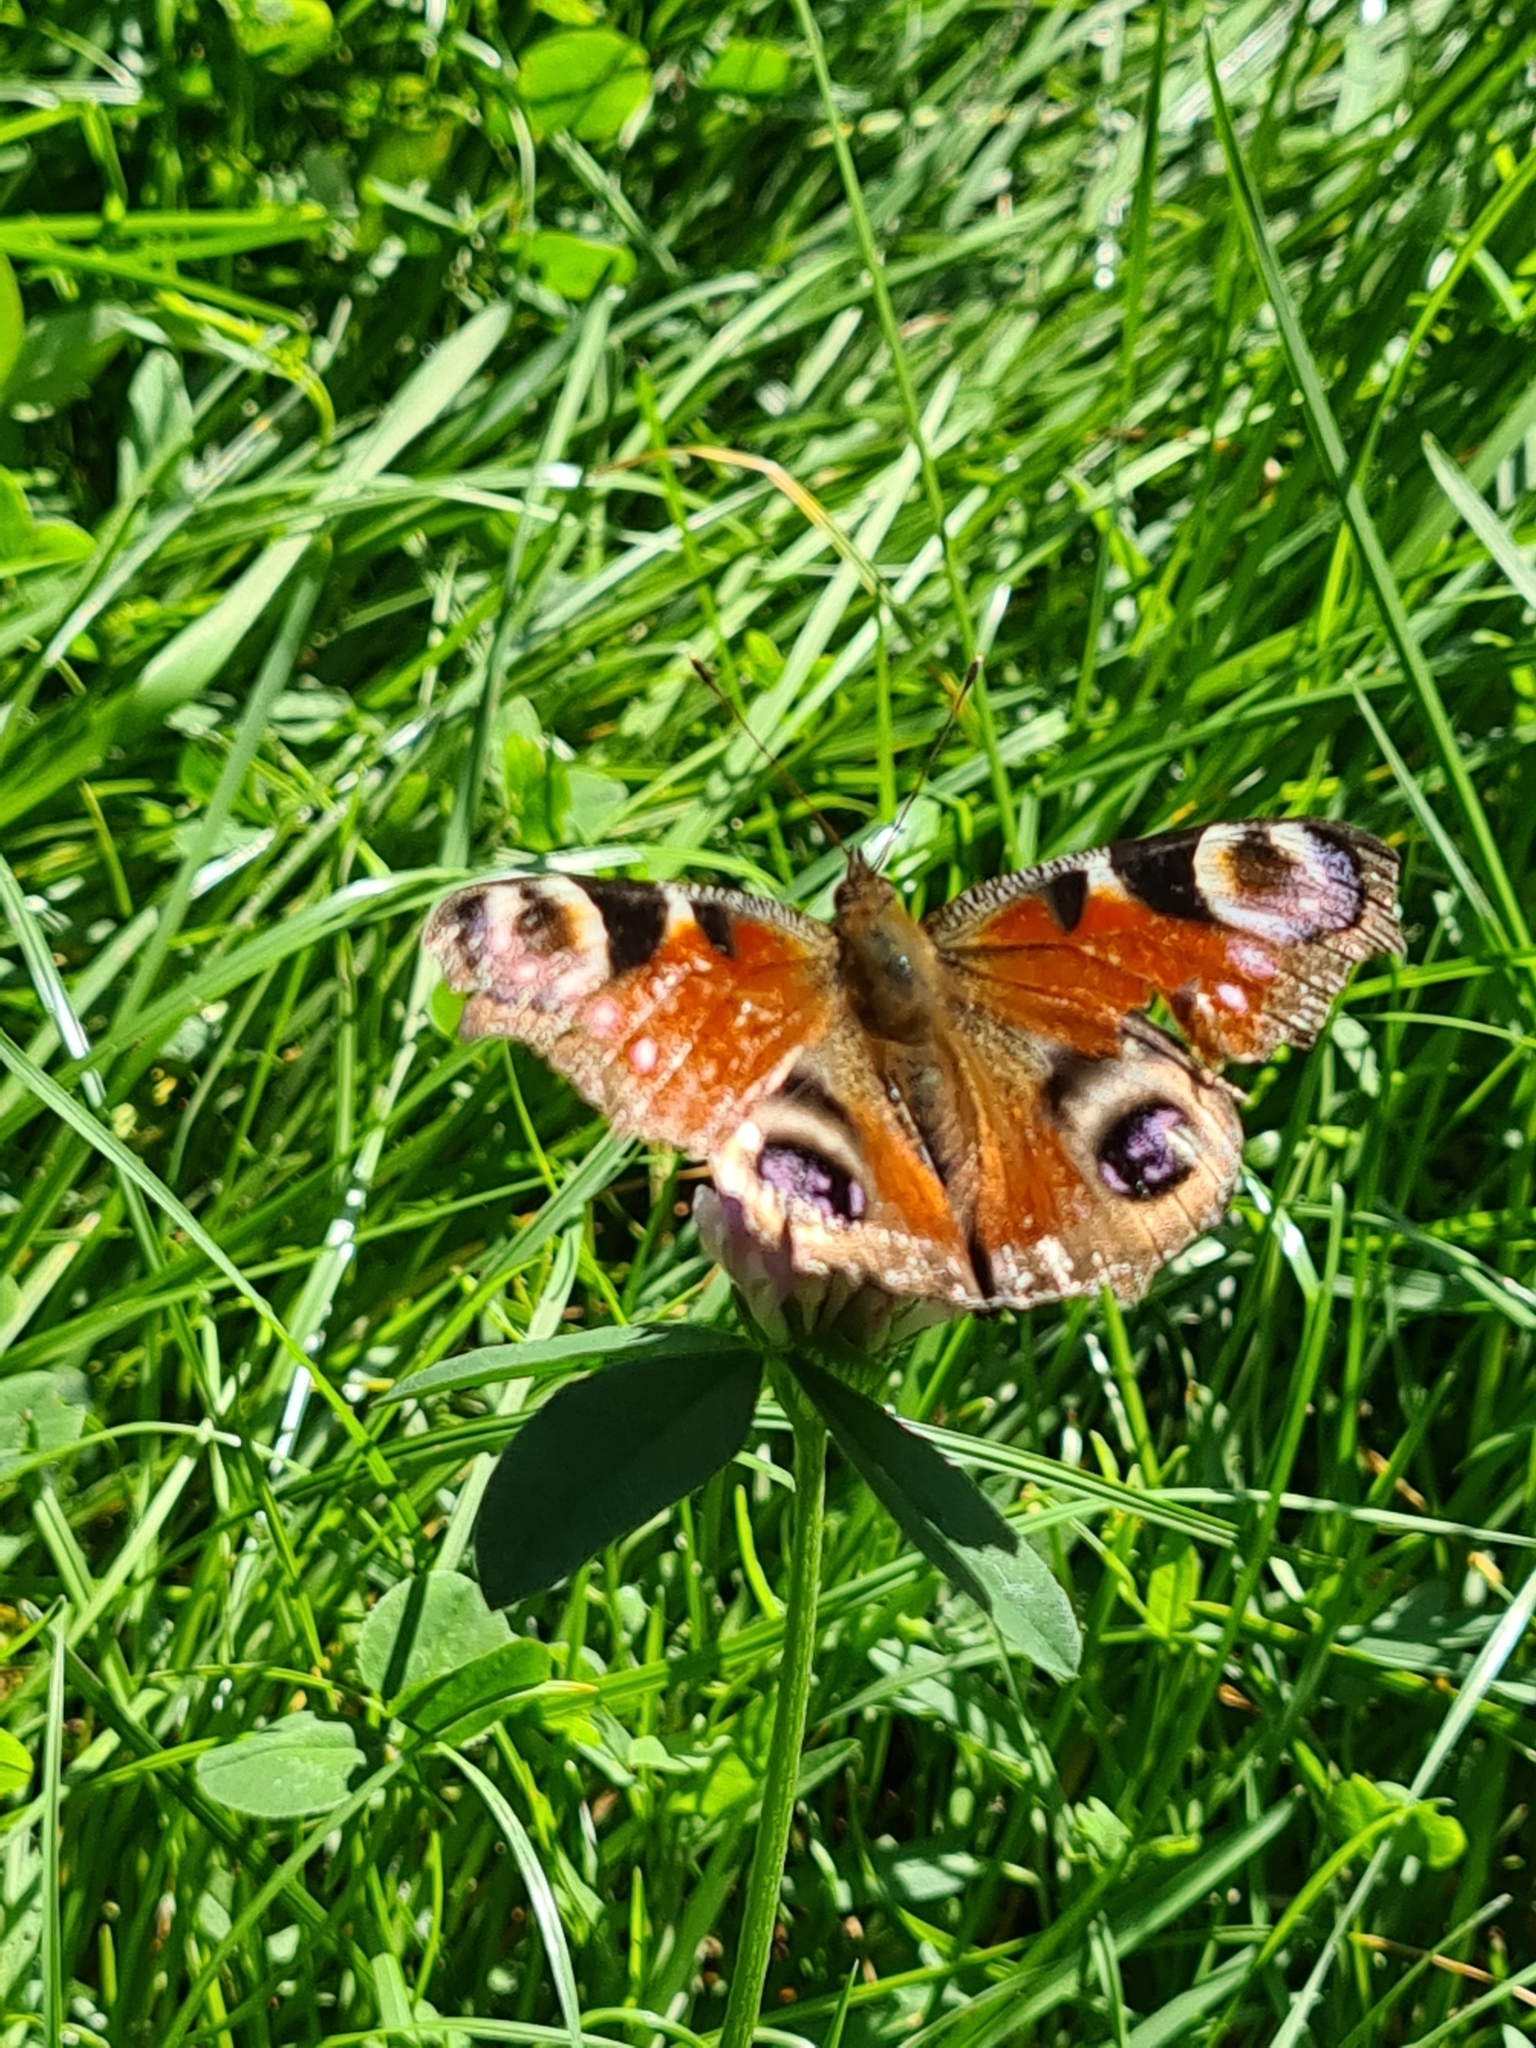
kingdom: Animalia
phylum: Arthropoda
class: Insecta
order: Lepidoptera
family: Nymphalidae
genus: Aglais
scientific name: Aglais io
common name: Peacock
